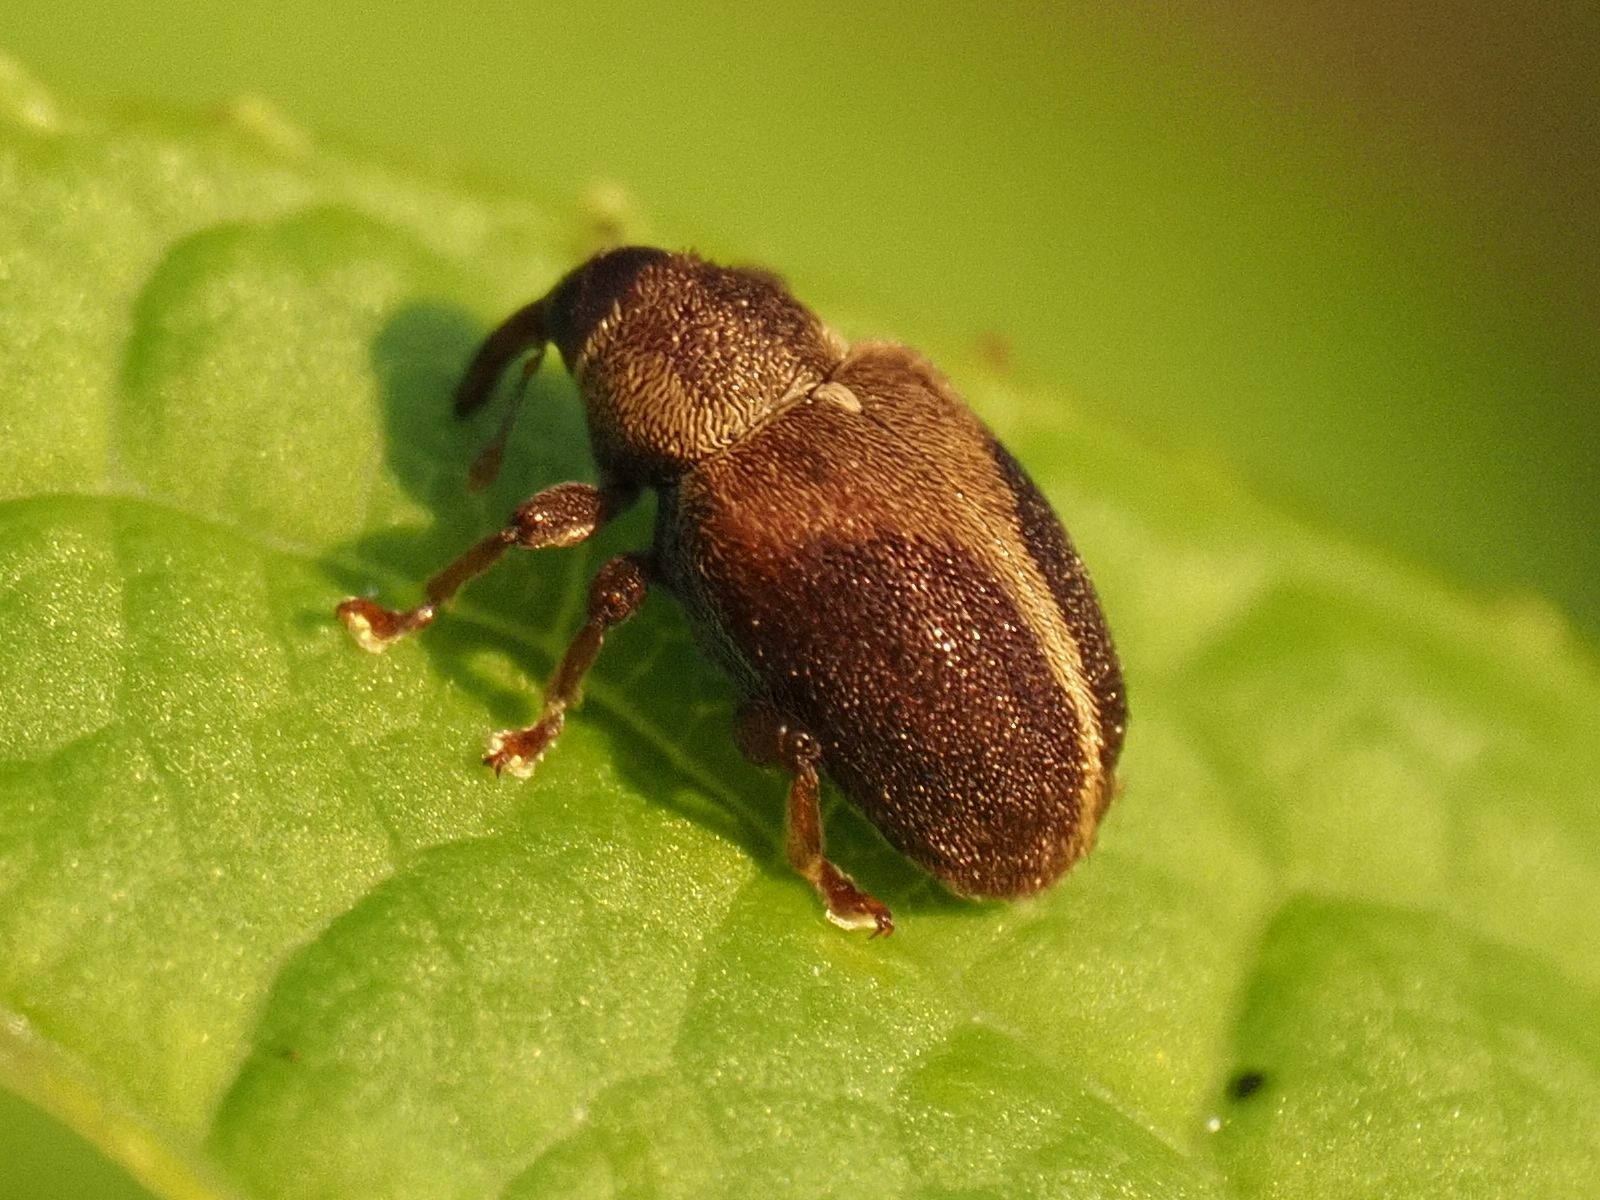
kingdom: Animalia
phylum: Arthropoda
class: Insecta
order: Coleoptera
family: Curculionidae
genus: Lignyodes
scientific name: Lignyodes enucleator
